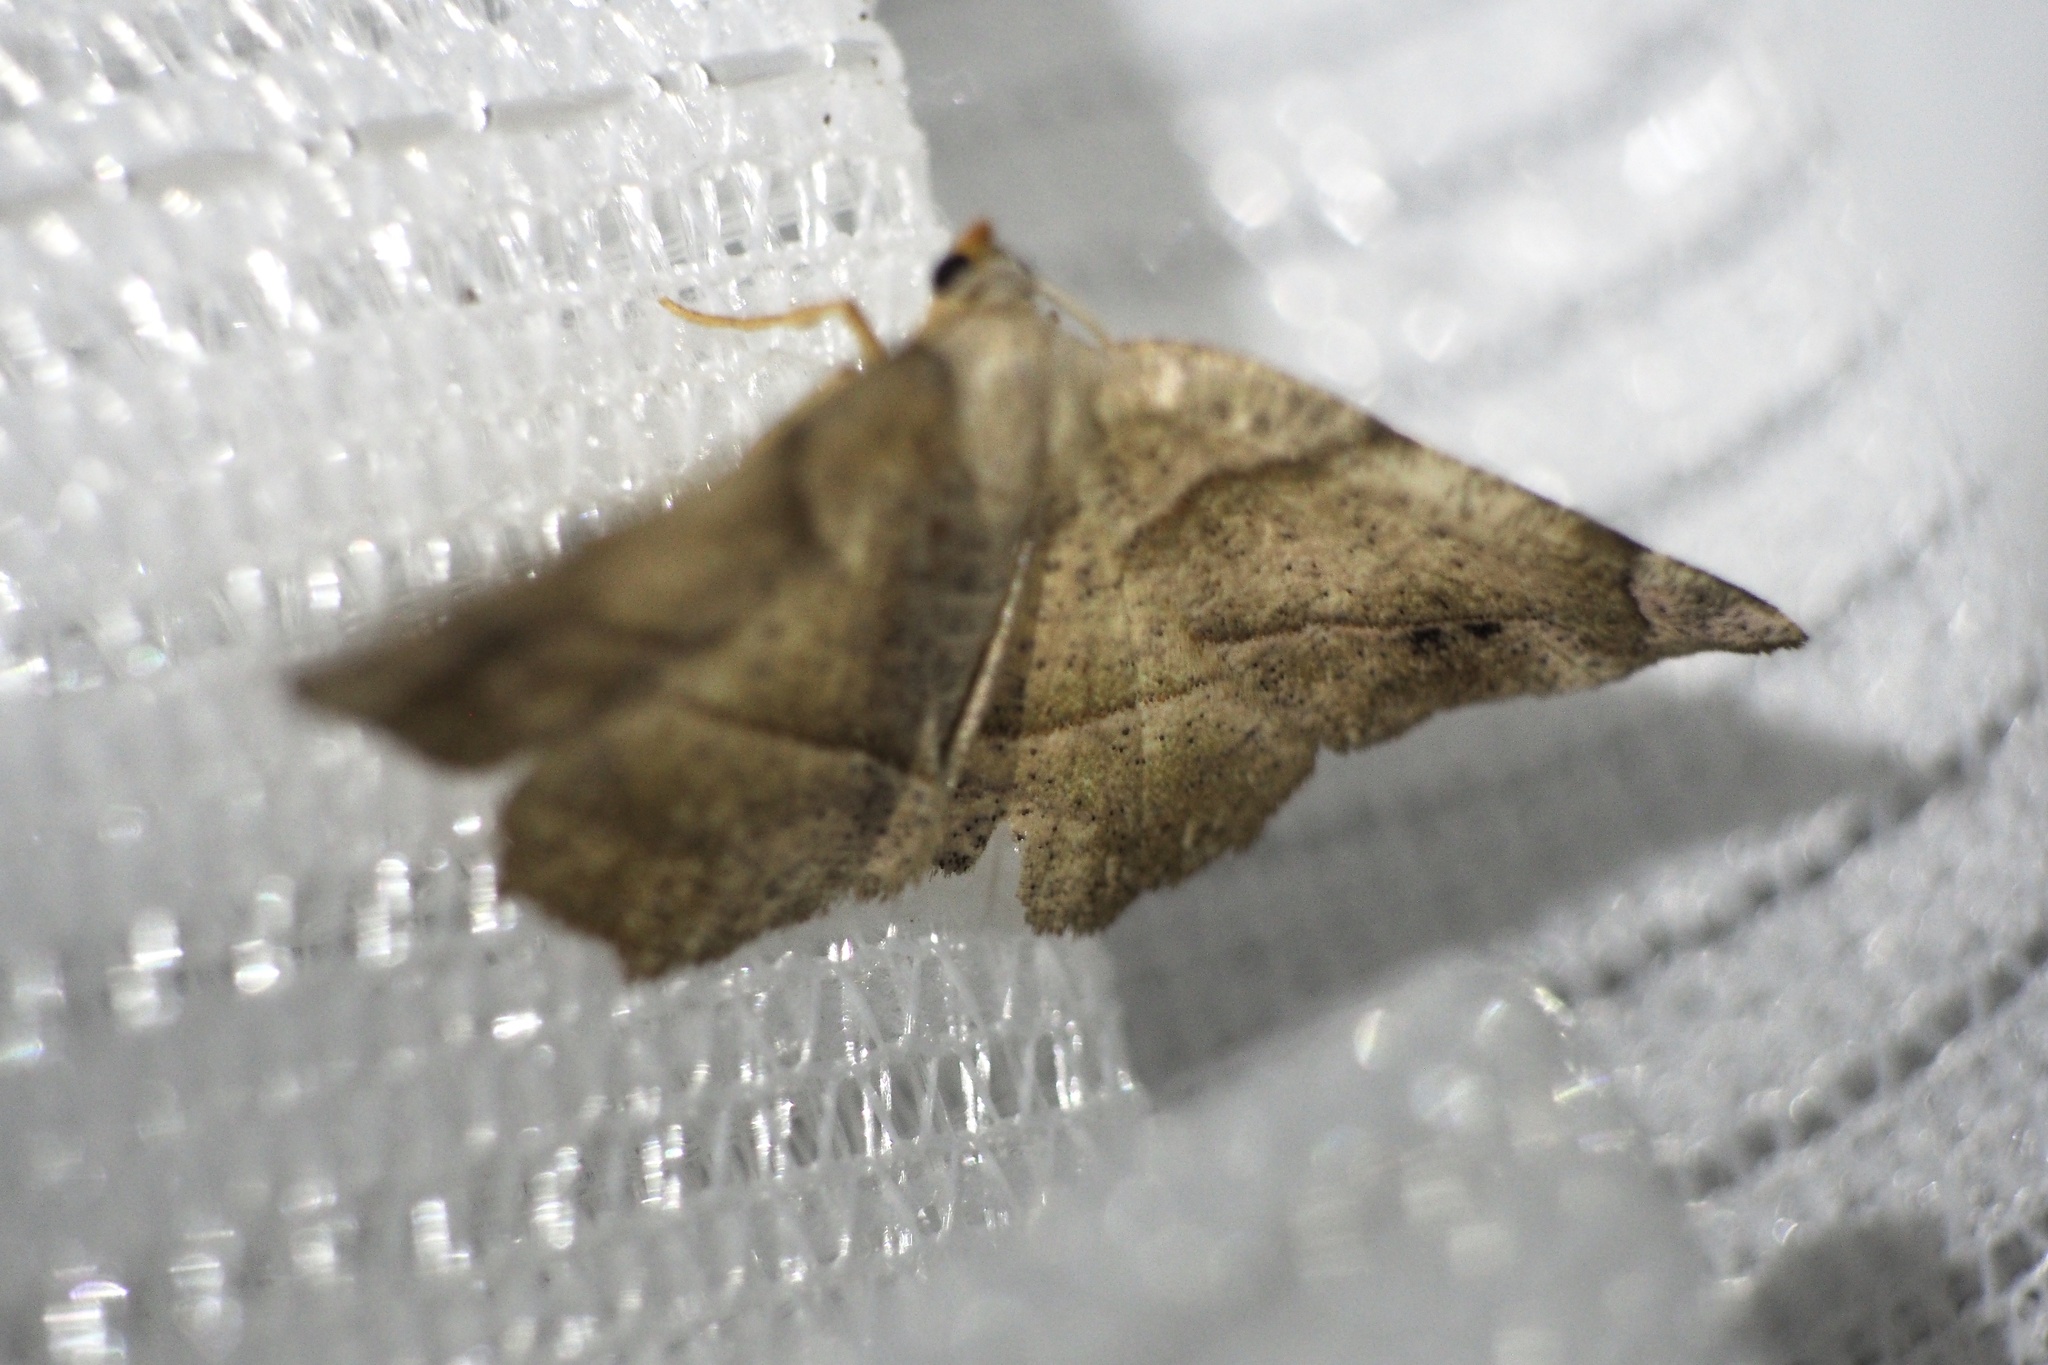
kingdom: Animalia
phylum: Arthropoda
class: Insecta
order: Lepidoptera
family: Geometridae
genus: Endropiodes
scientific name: Endropiodes indictinaria
